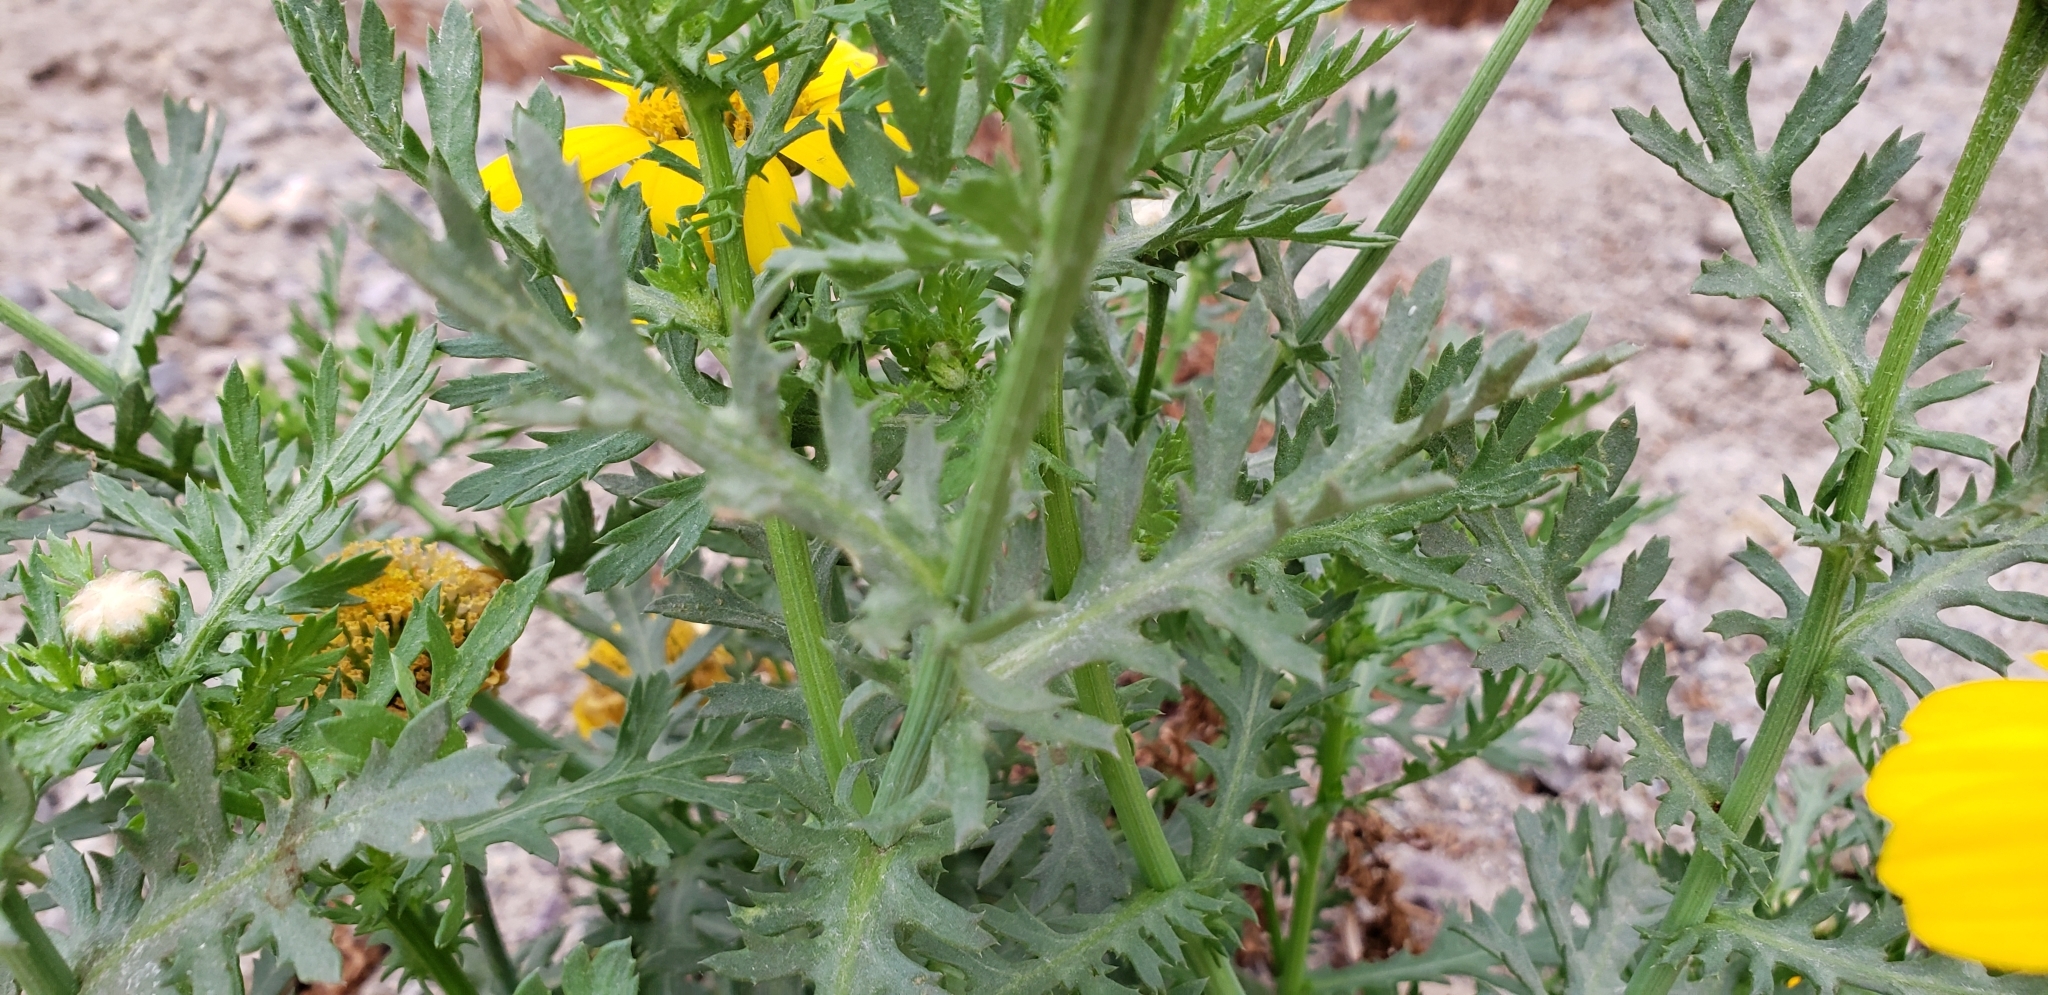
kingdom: Plantae
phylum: Tracheophyta
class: Magnoliopsida
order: Asterales
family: Asteraceae
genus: Glebionis
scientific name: Glebionis coronaria
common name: Crowndaisy
